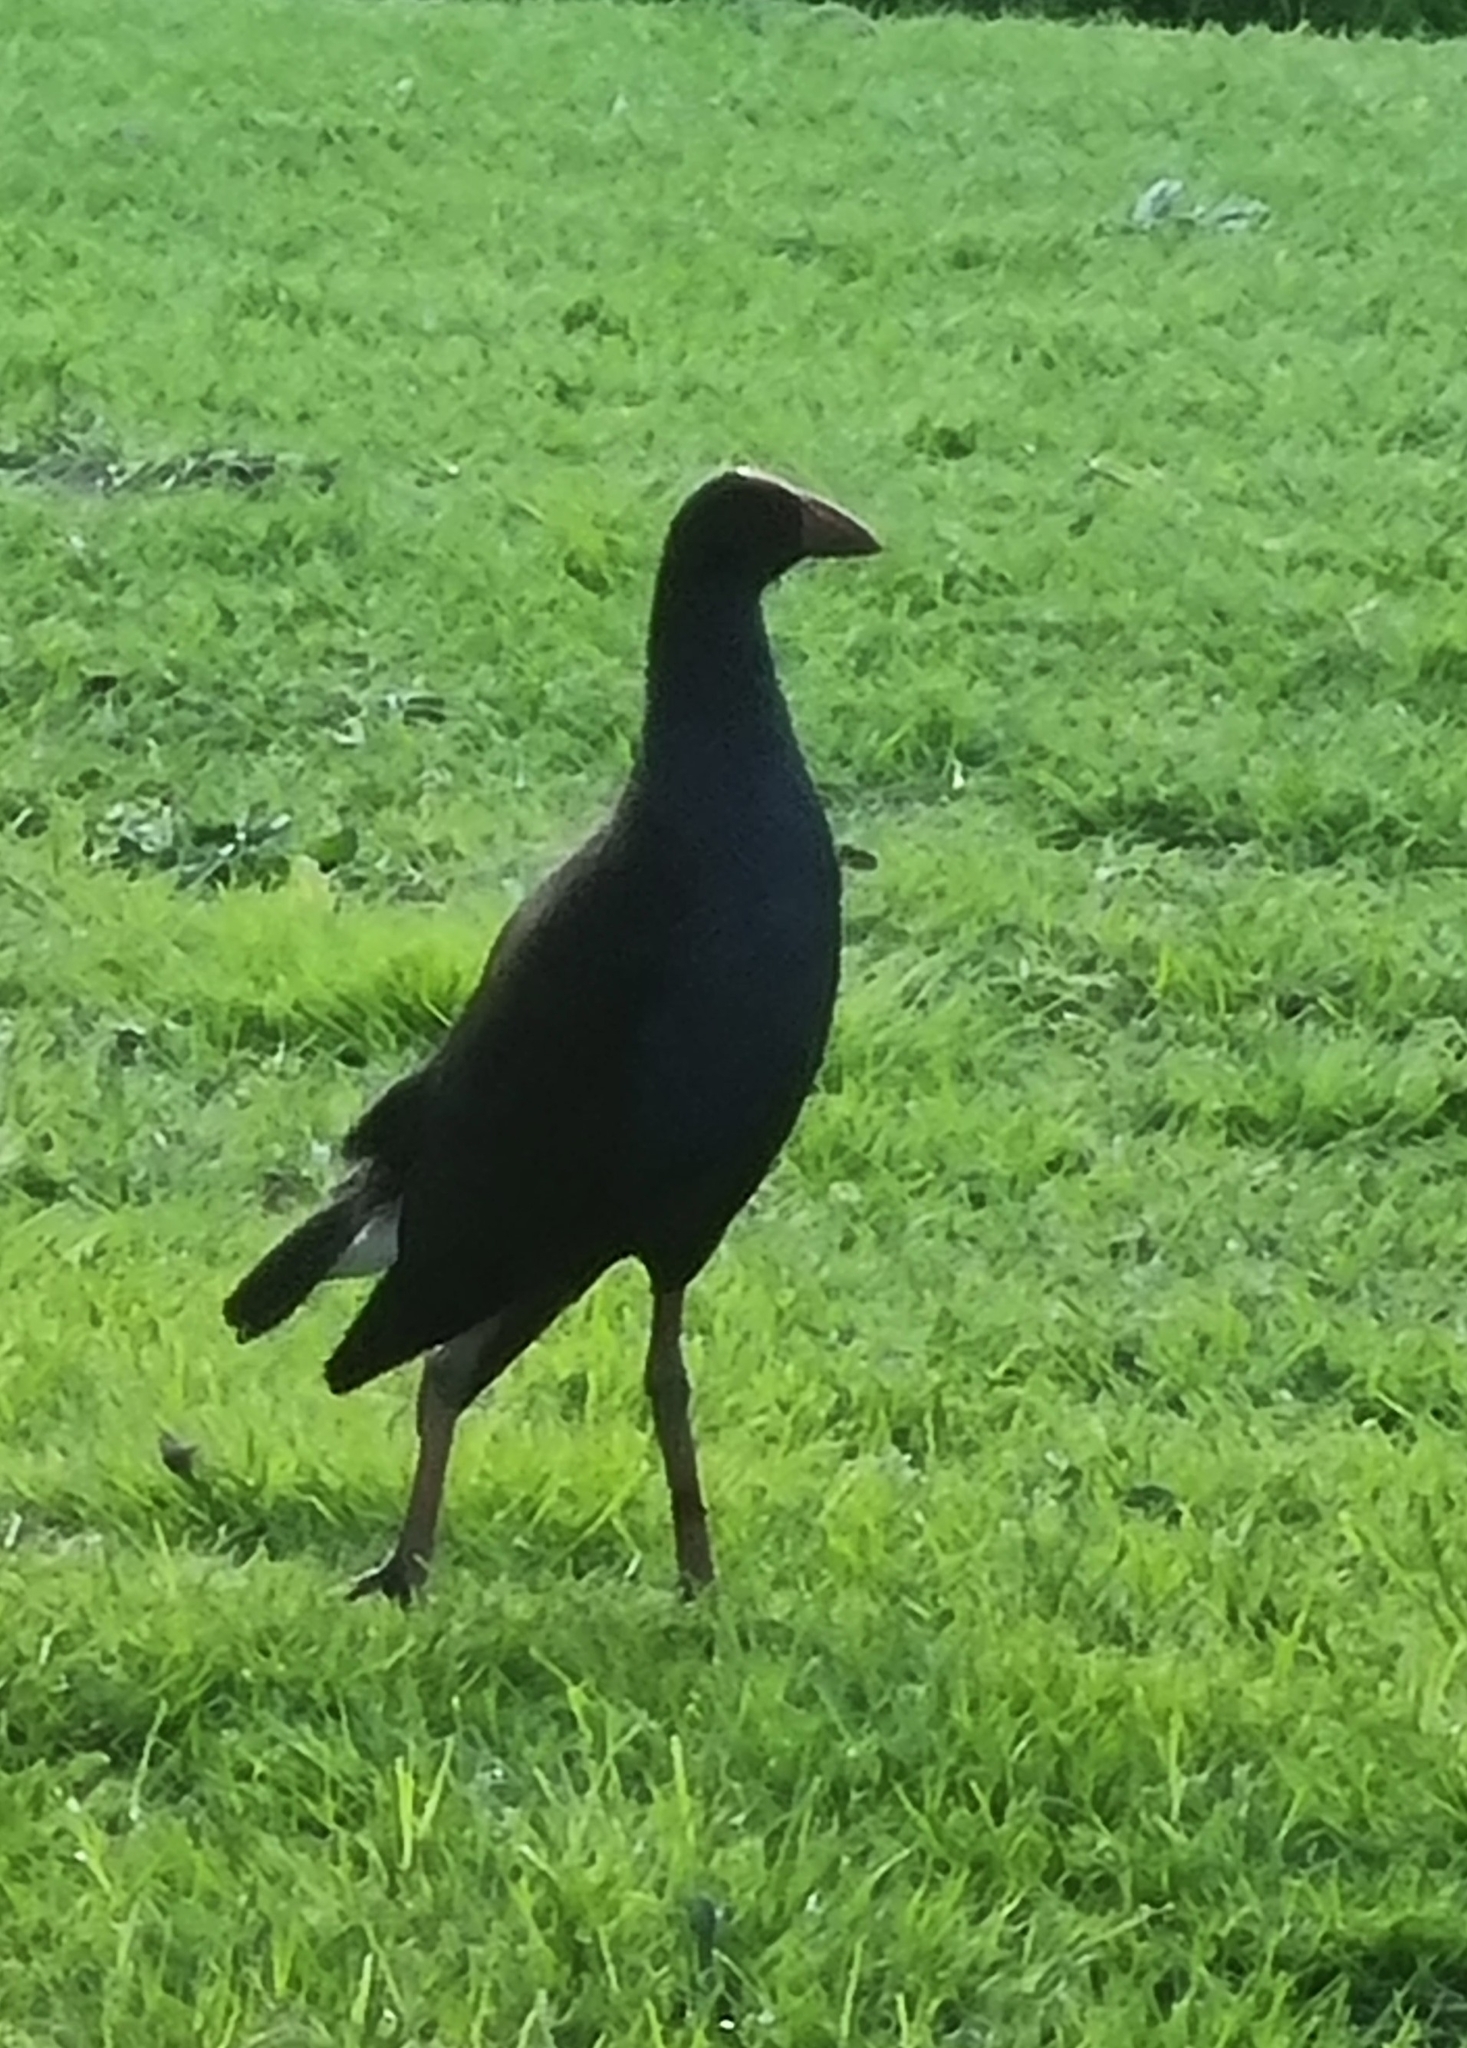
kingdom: Animalia
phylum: Chordata
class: Aves
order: Gruiformes
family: Rallidae
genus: Porphyrio
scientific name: Porphyrio melanotus
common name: Australasian swamphen
